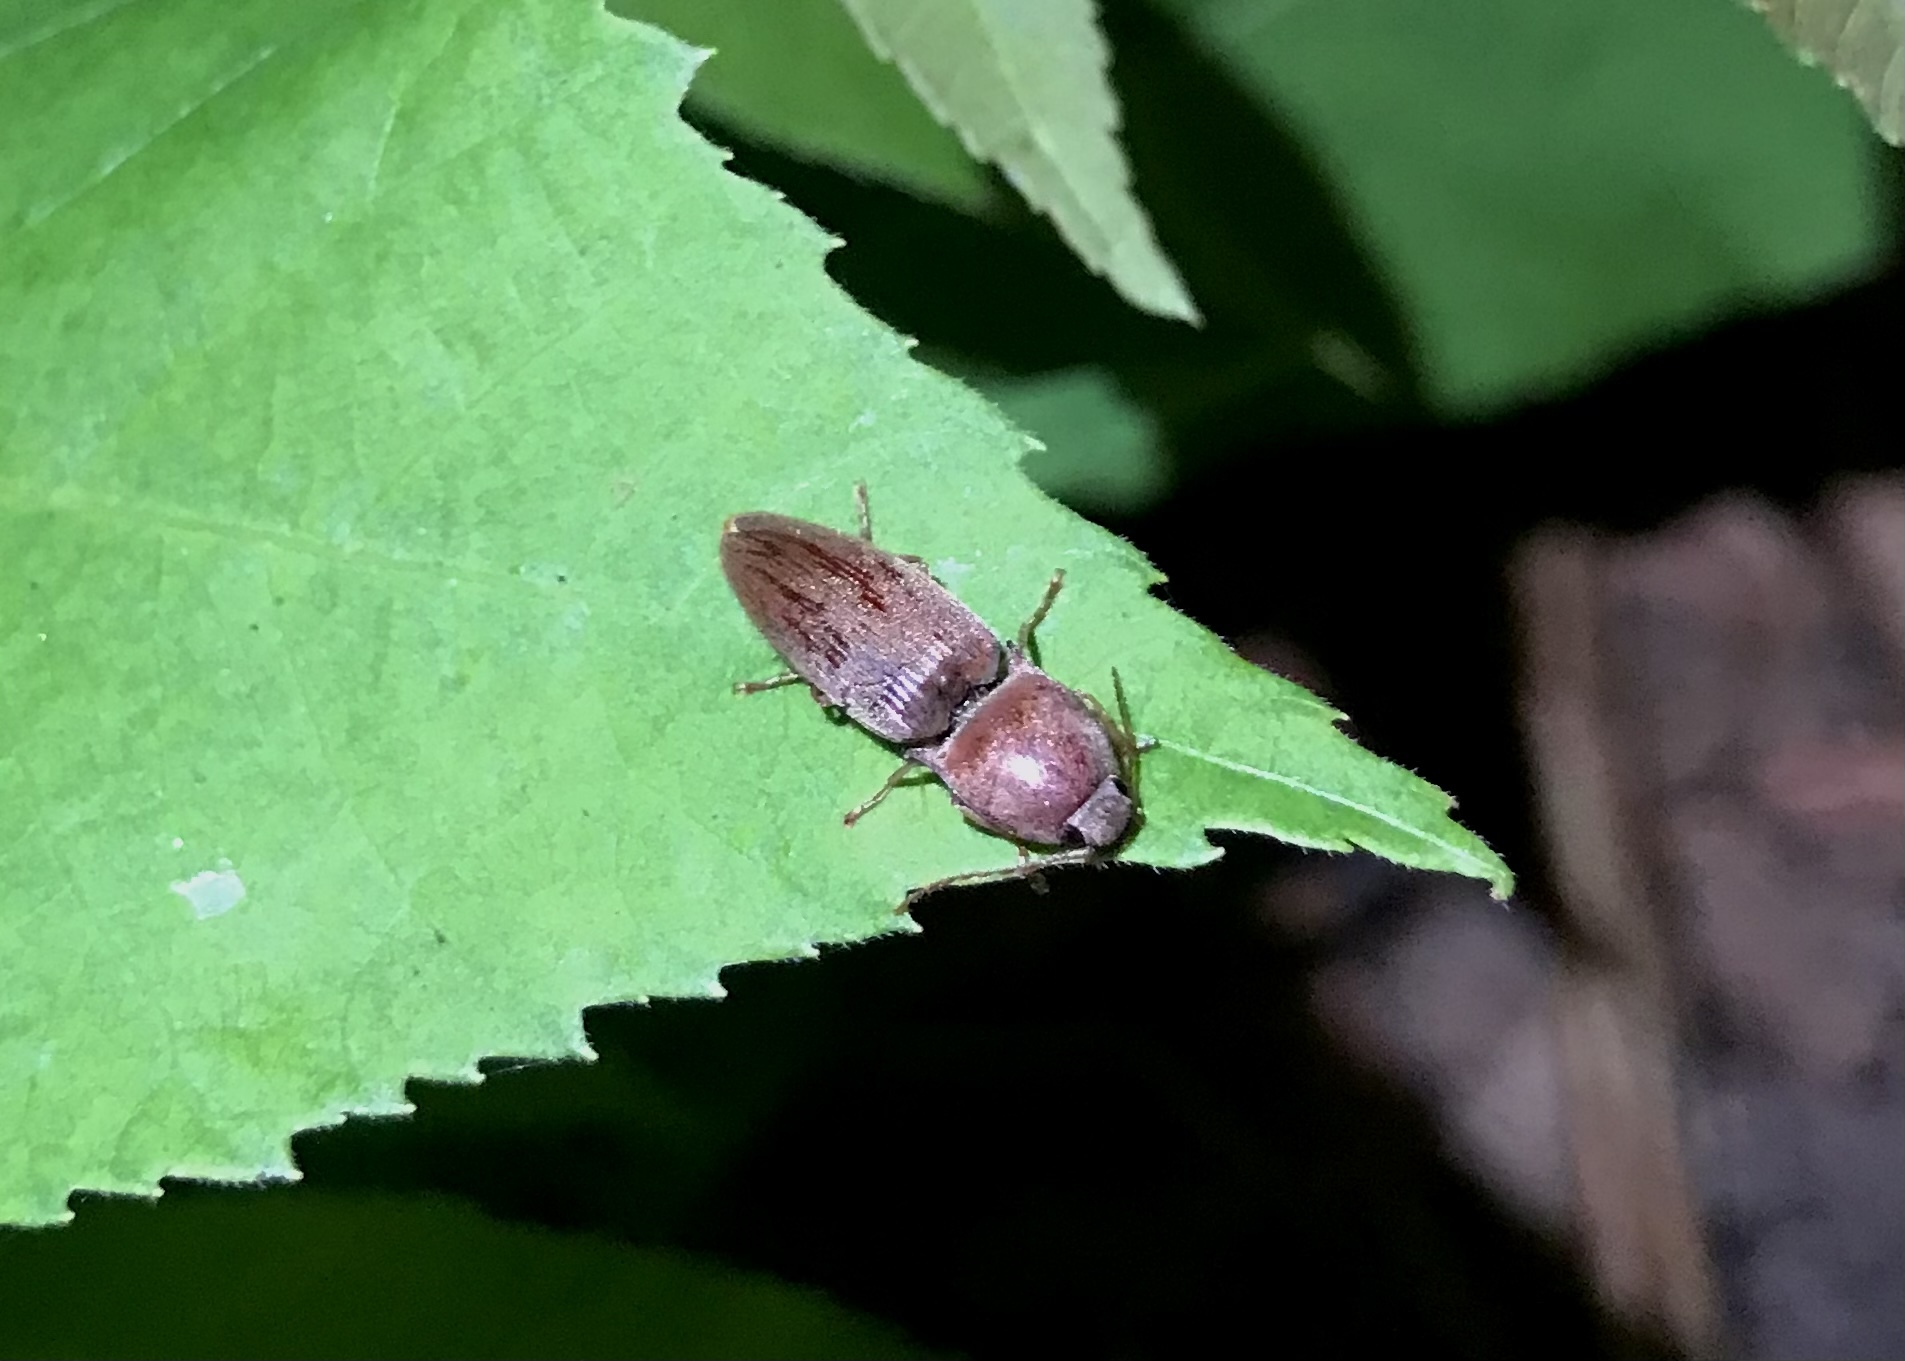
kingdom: Animalia
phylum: Arthropoda
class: Insecta
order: Coleoptera
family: Elateridae
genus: Monocrepidius
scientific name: Monocrepidius lividus
